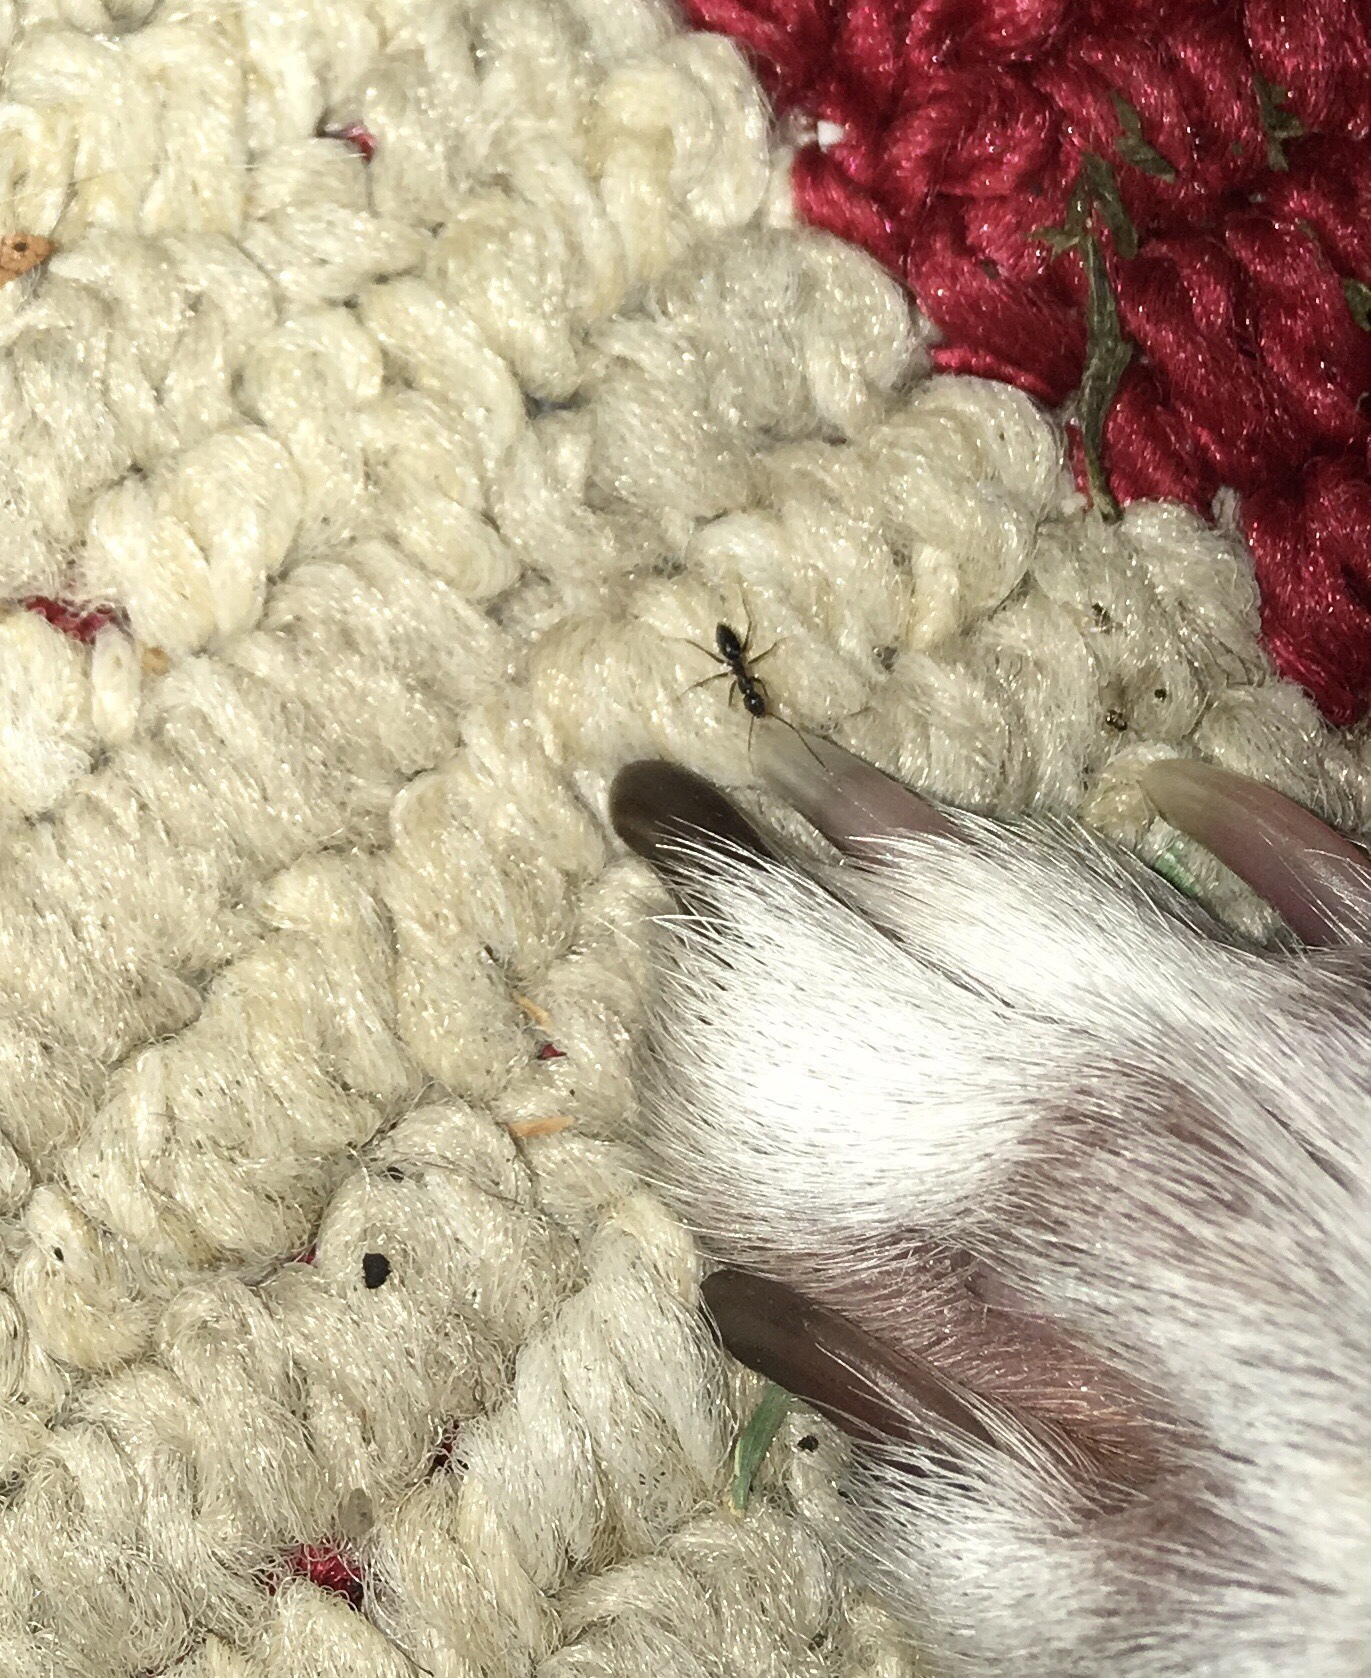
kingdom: Animalia
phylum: Arthropoda
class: Insecta
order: Hymenoptera
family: Formicidae
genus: Paratrechina
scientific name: Paratrechina longicornis
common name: Longhorned crazy ant
